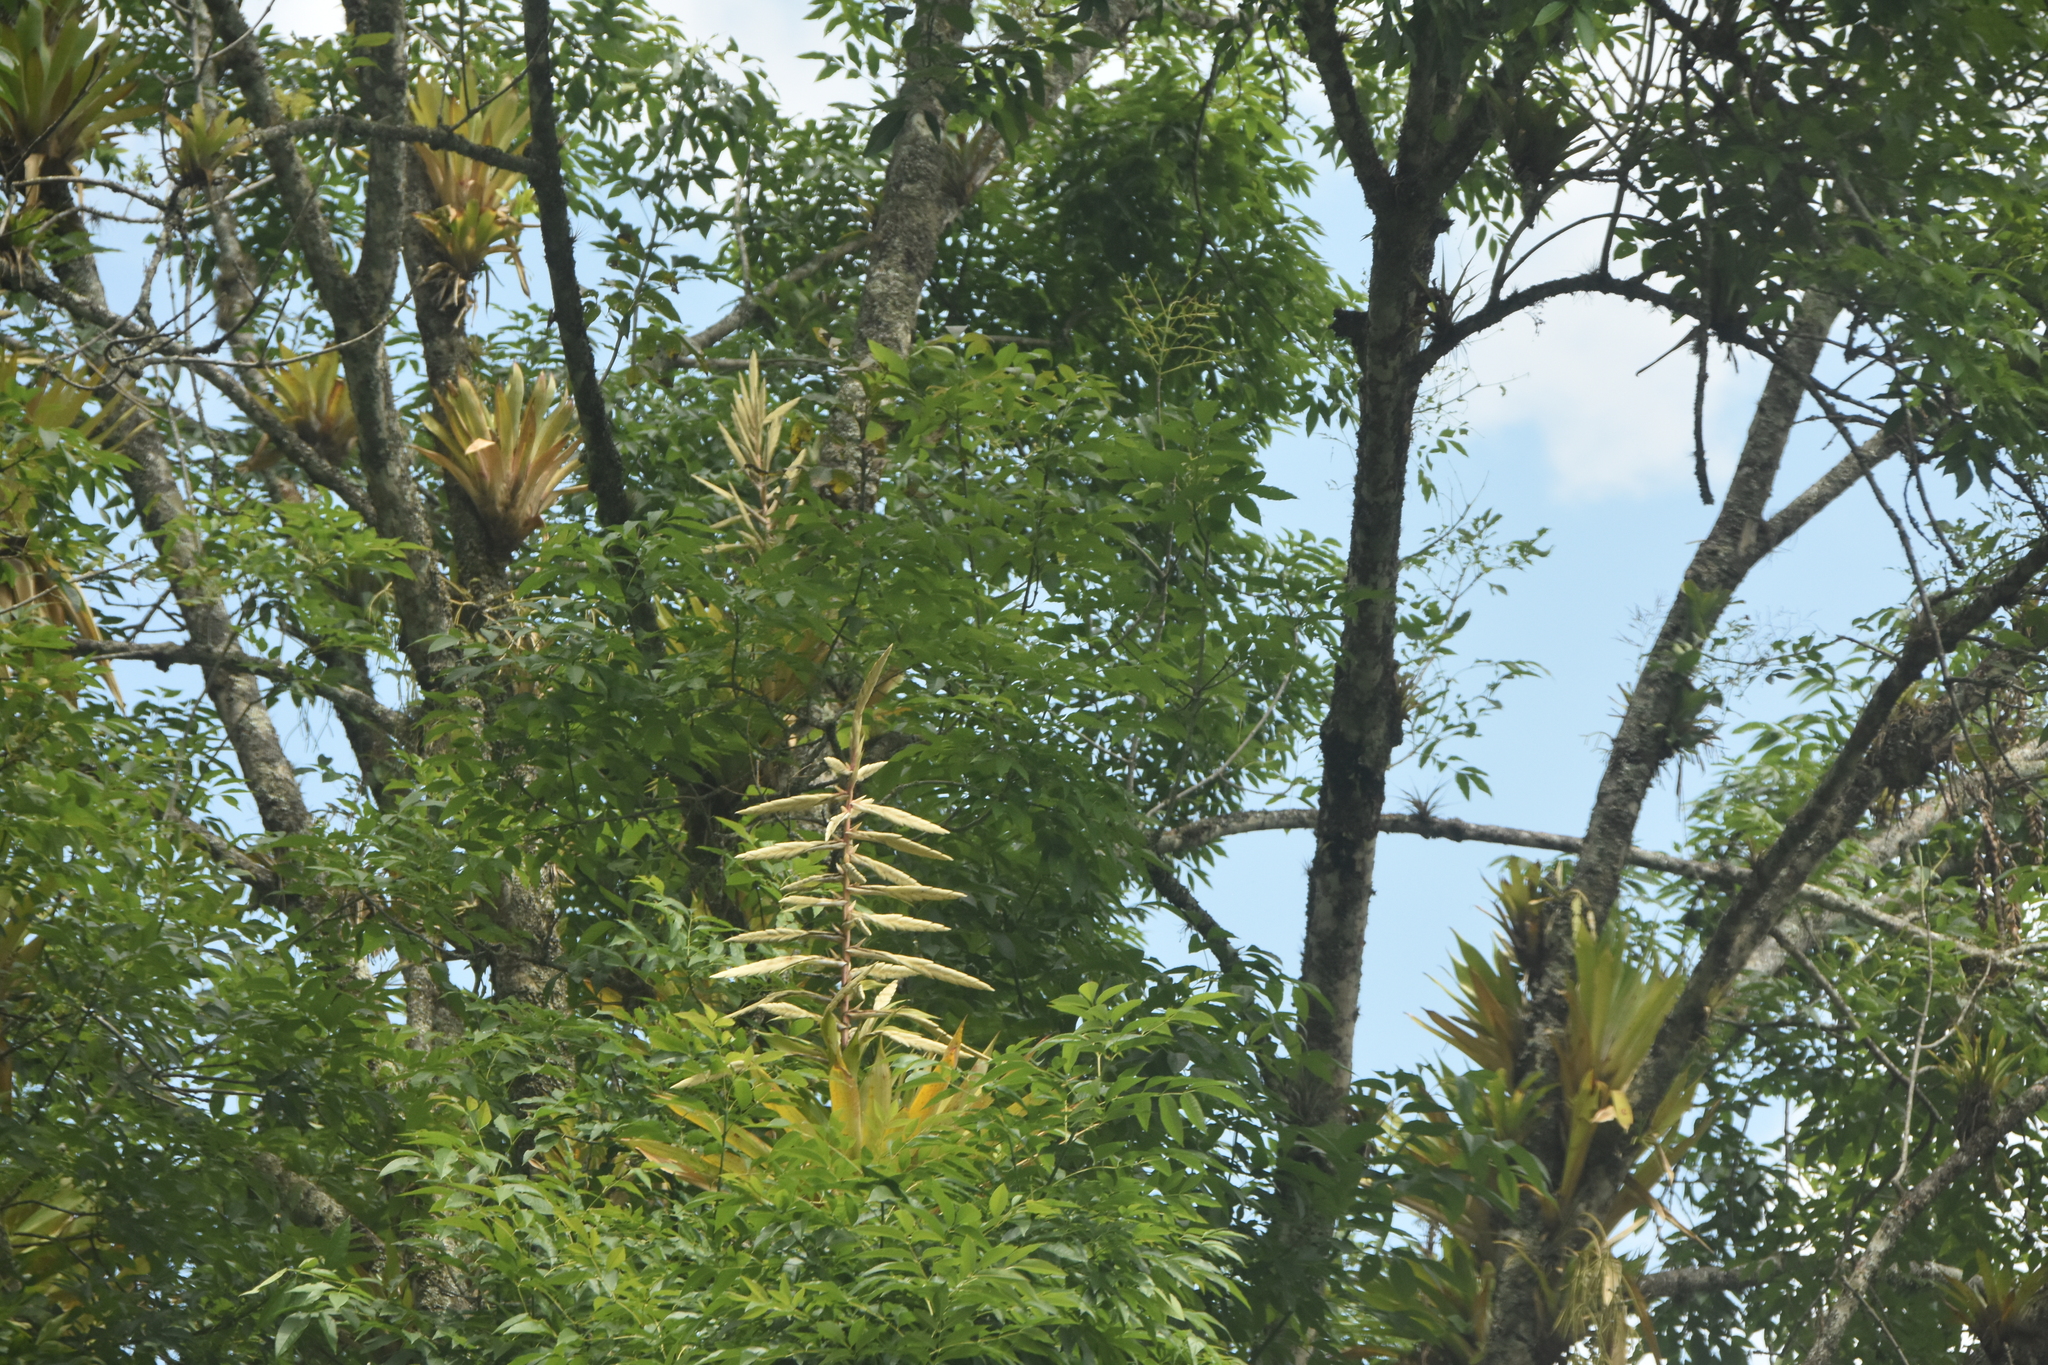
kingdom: Plantae
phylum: Tracheophyta
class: Liliopsida
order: Poales
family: Bromeliaceae
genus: Tillandsia
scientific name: Tillandsia fendleri
